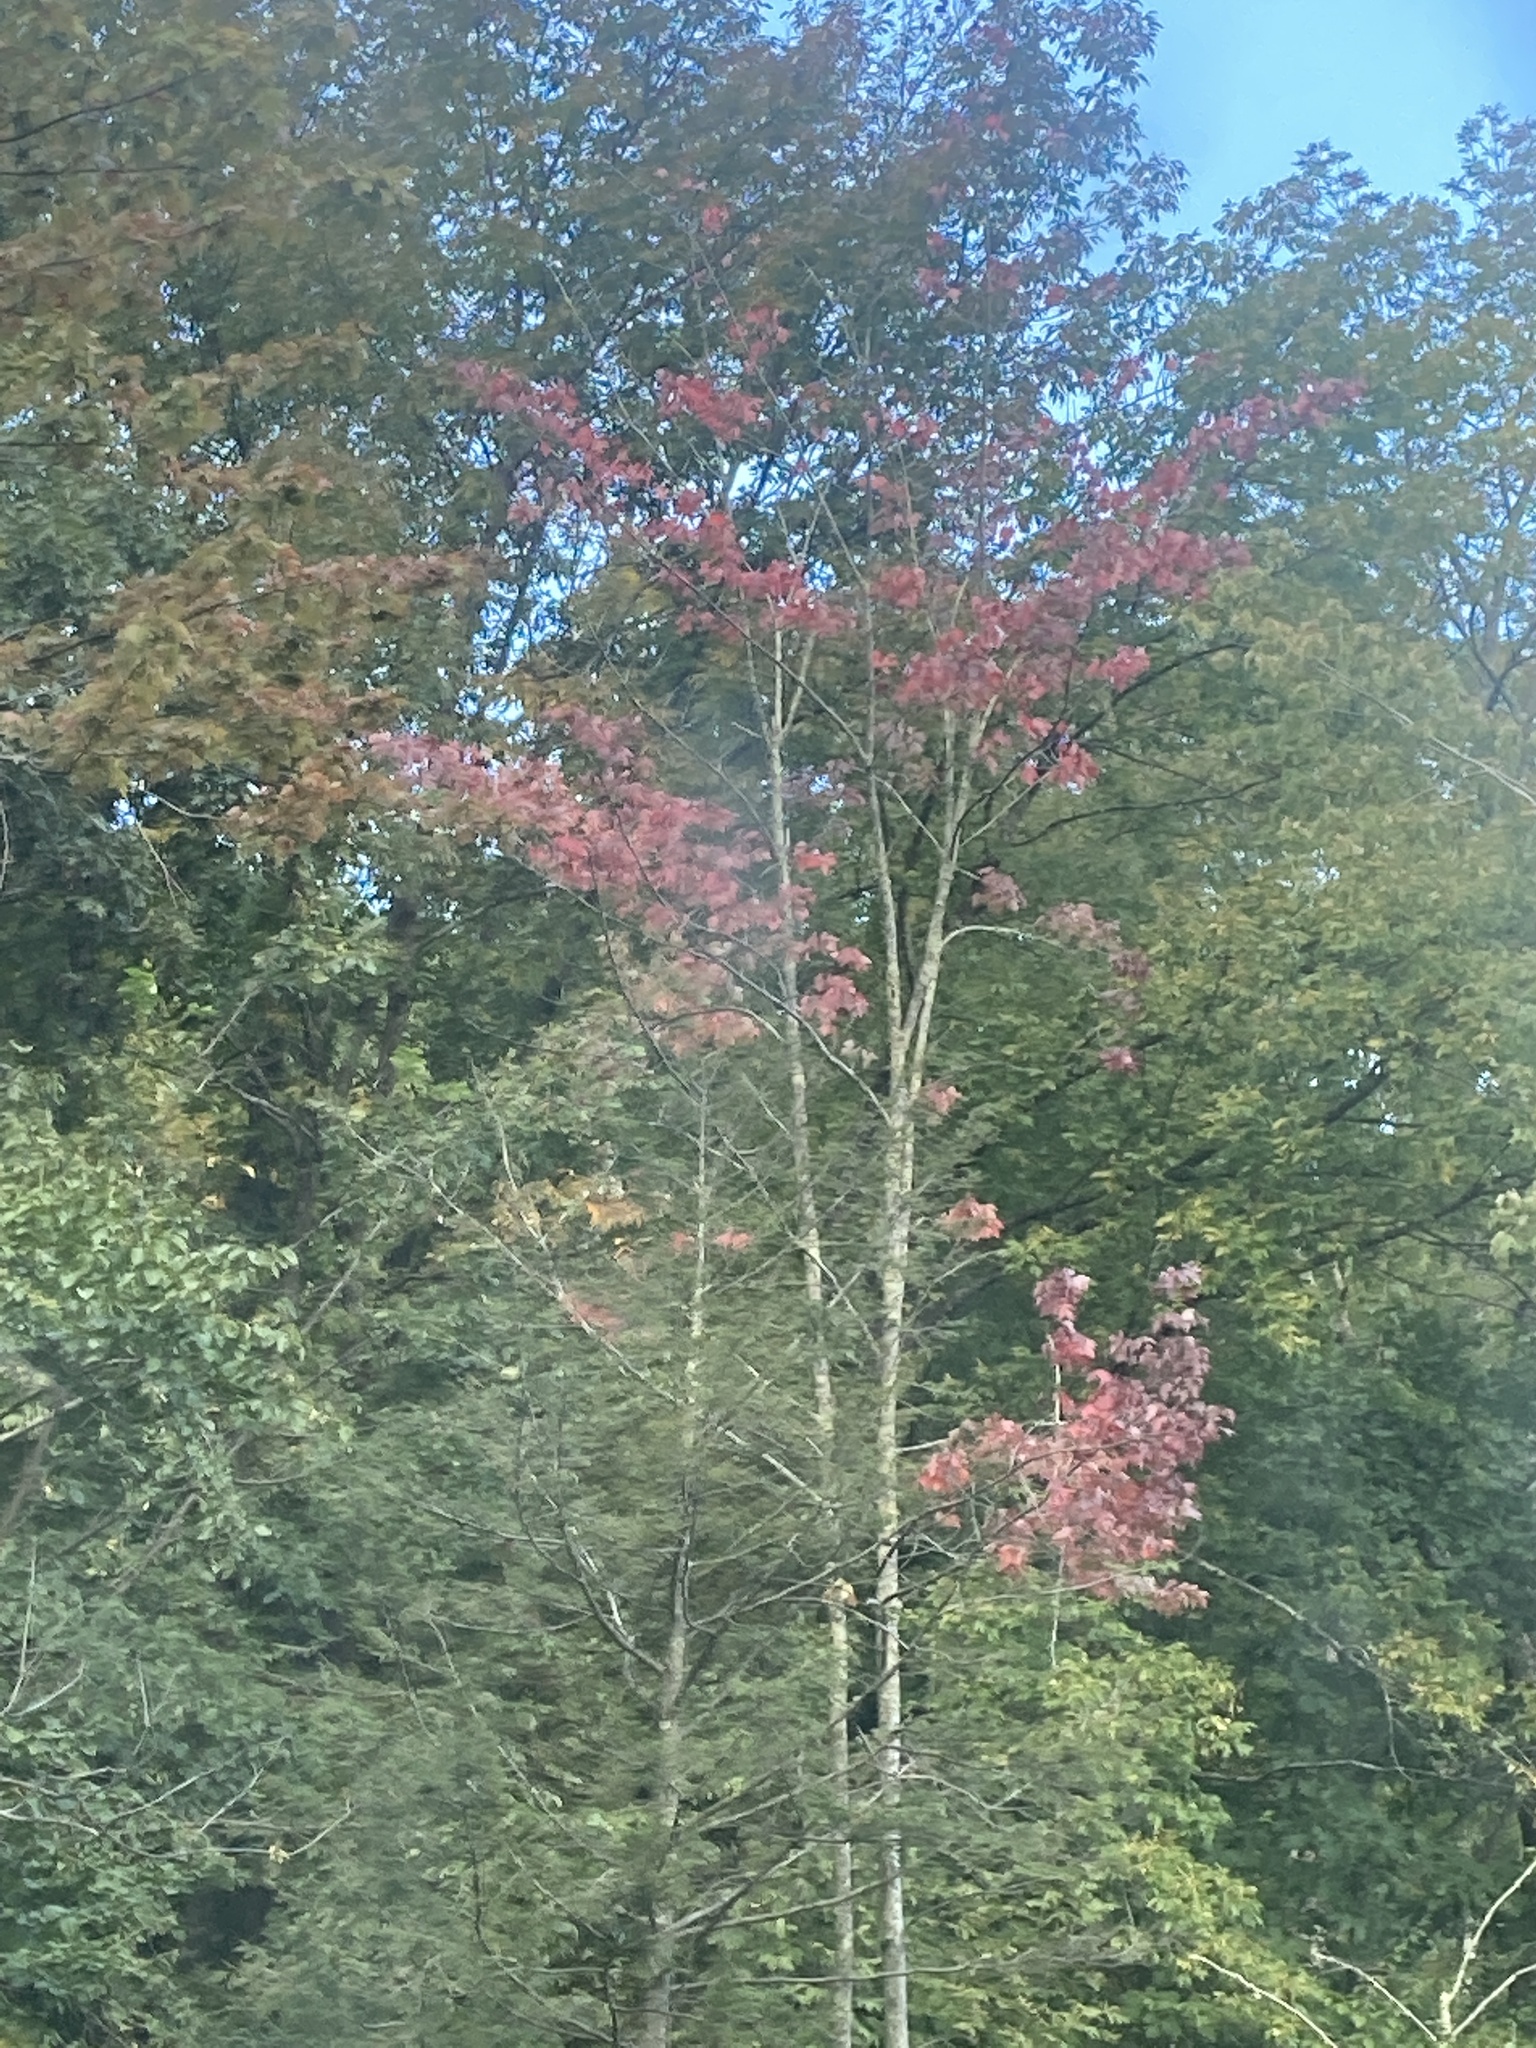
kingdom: Plantae
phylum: Tracheophyta
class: Magnoliopsida
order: Sapindales
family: Sapindaceae
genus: Acer
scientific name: Acer rubrum
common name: Red maple
